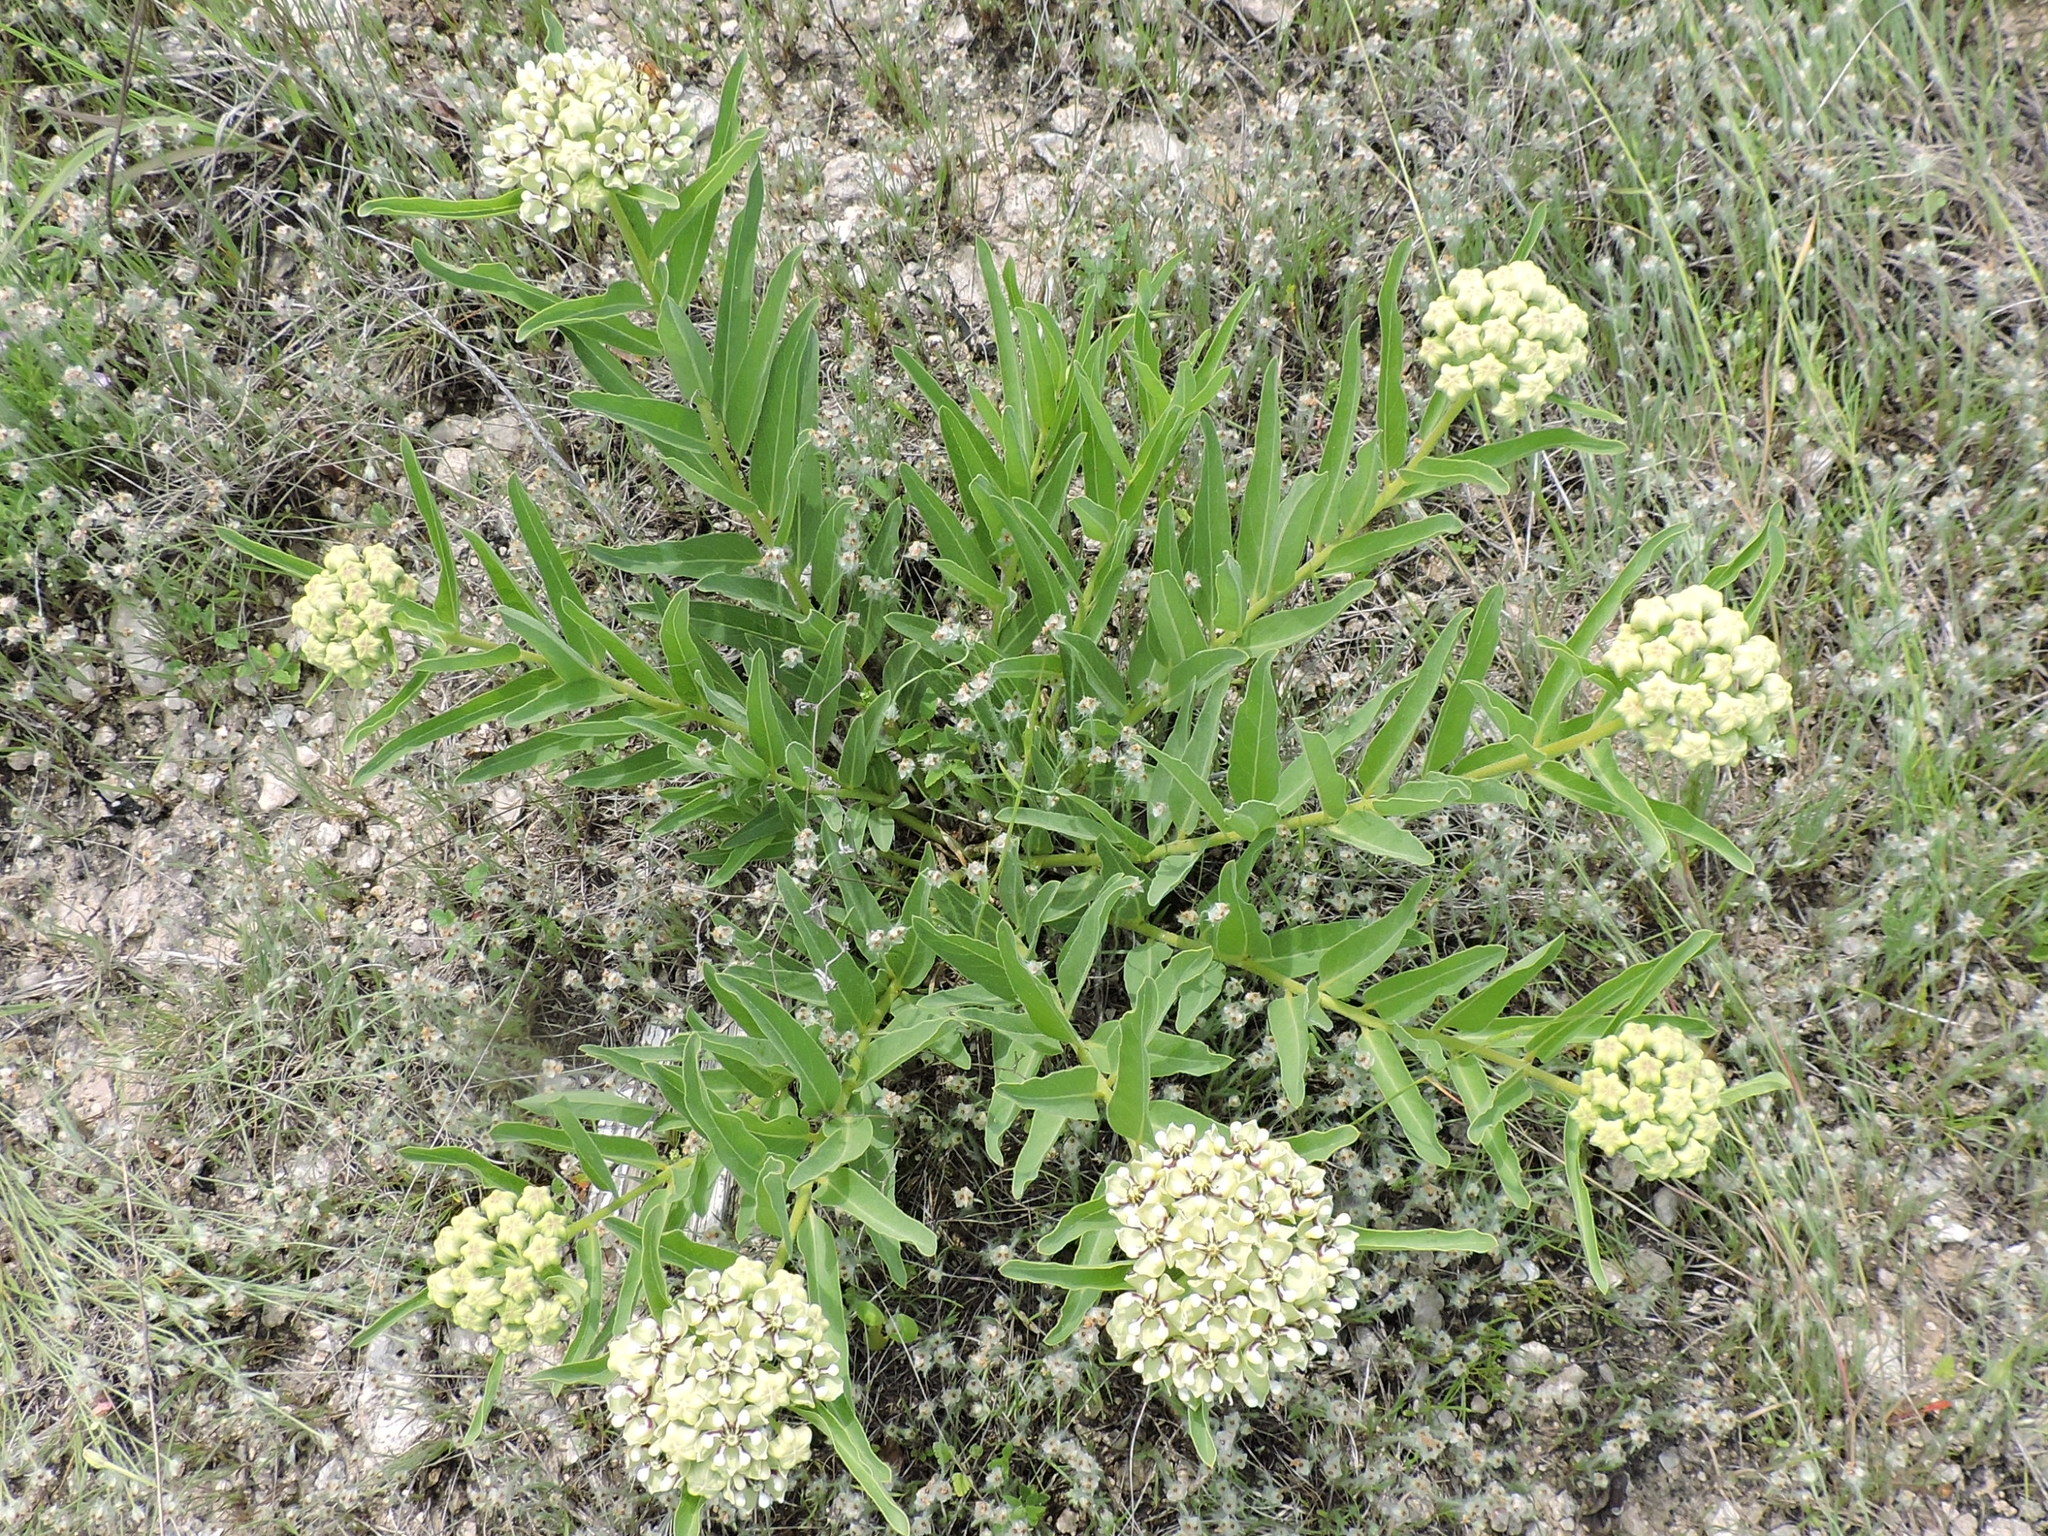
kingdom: Plantae
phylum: Tracheophyta
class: Magnoliopsida
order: Gentianales
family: Apocynaceae
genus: Asclepias
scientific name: Asclepias asperula
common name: Antelope horns
